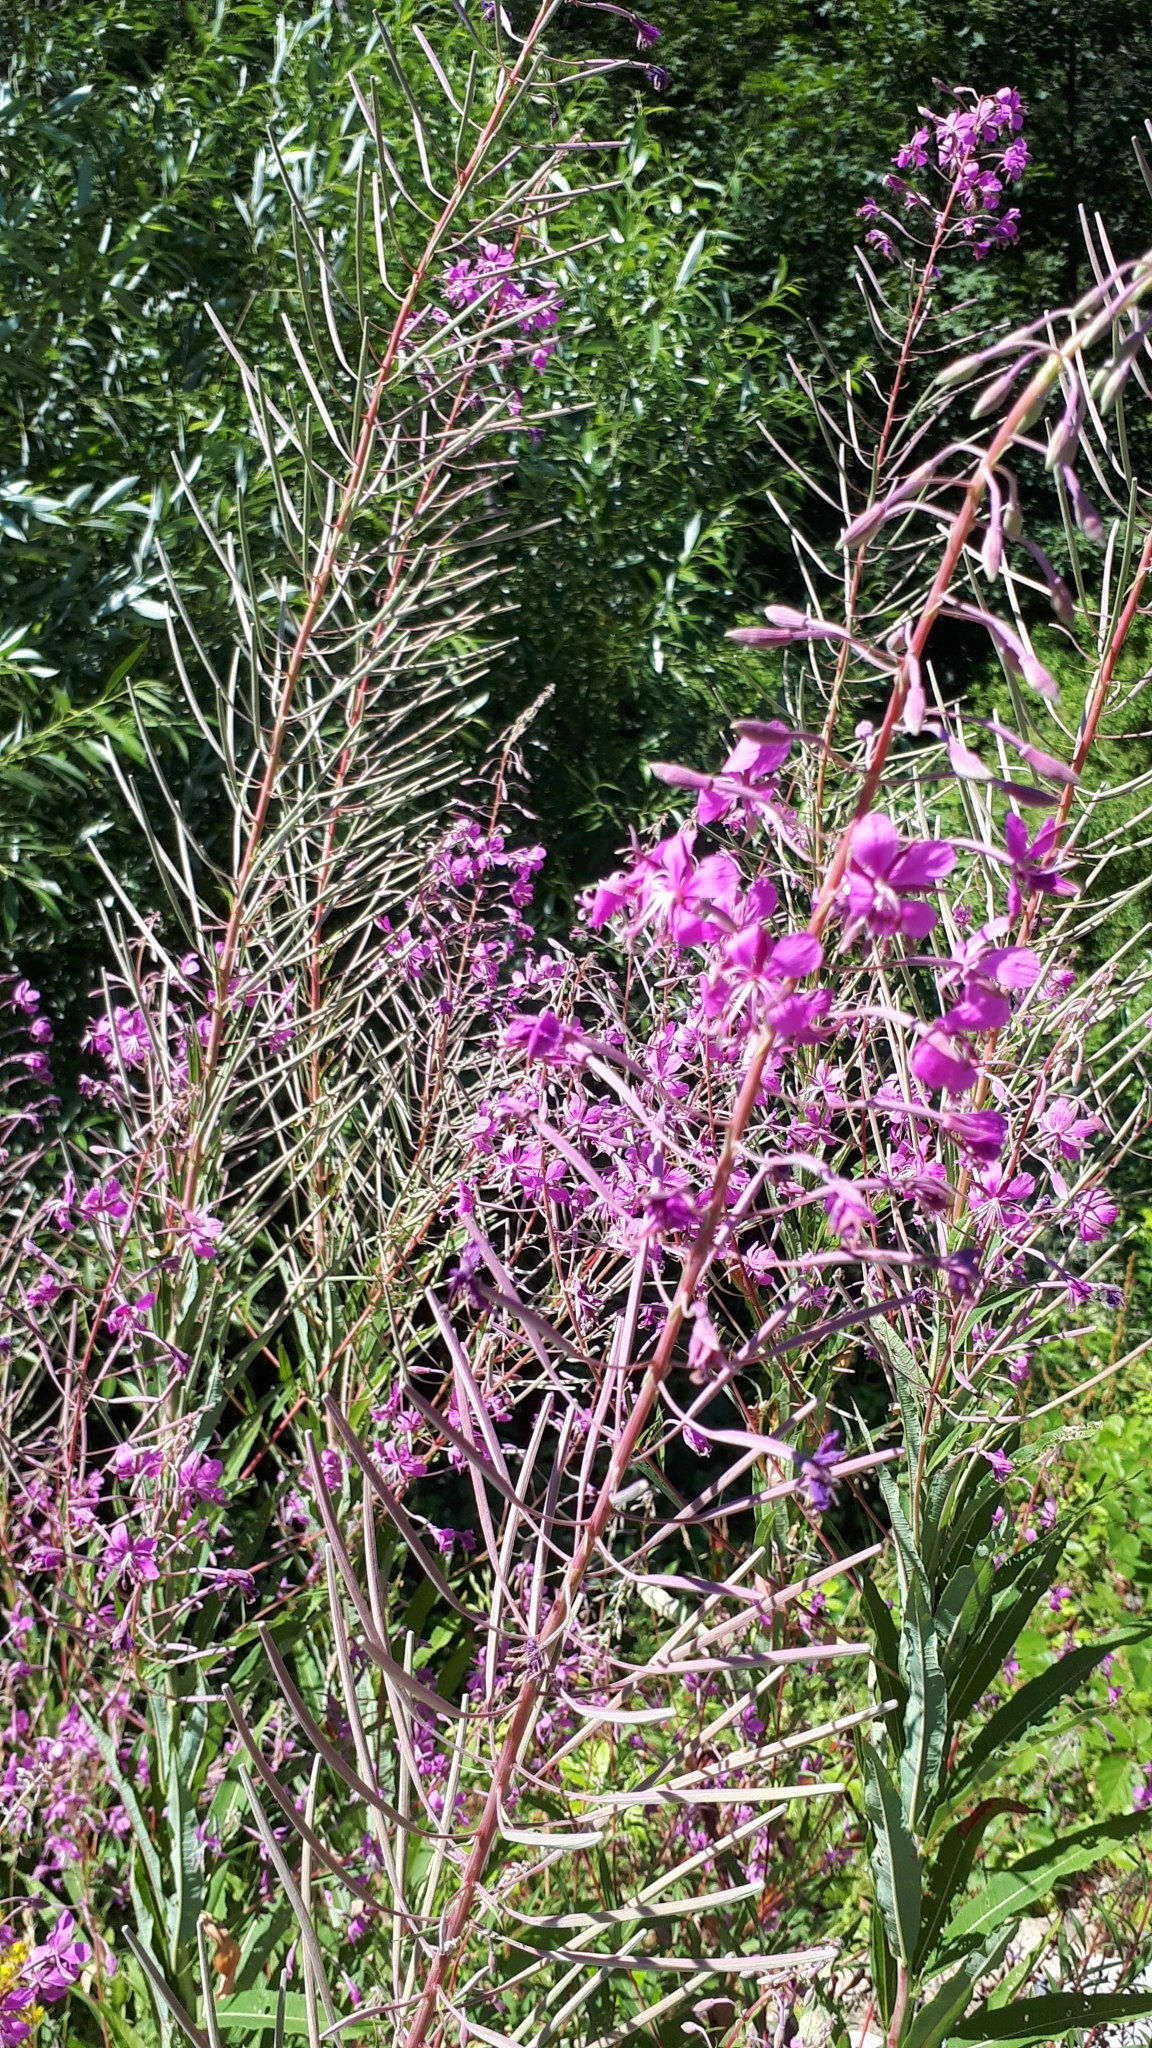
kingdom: Plantae
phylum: Tracheophyta
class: Magnoliopsida
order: Myrtales
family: Onagraceae
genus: Chamaenerion
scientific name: Chamaenerion angustifolium
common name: Fireweed
